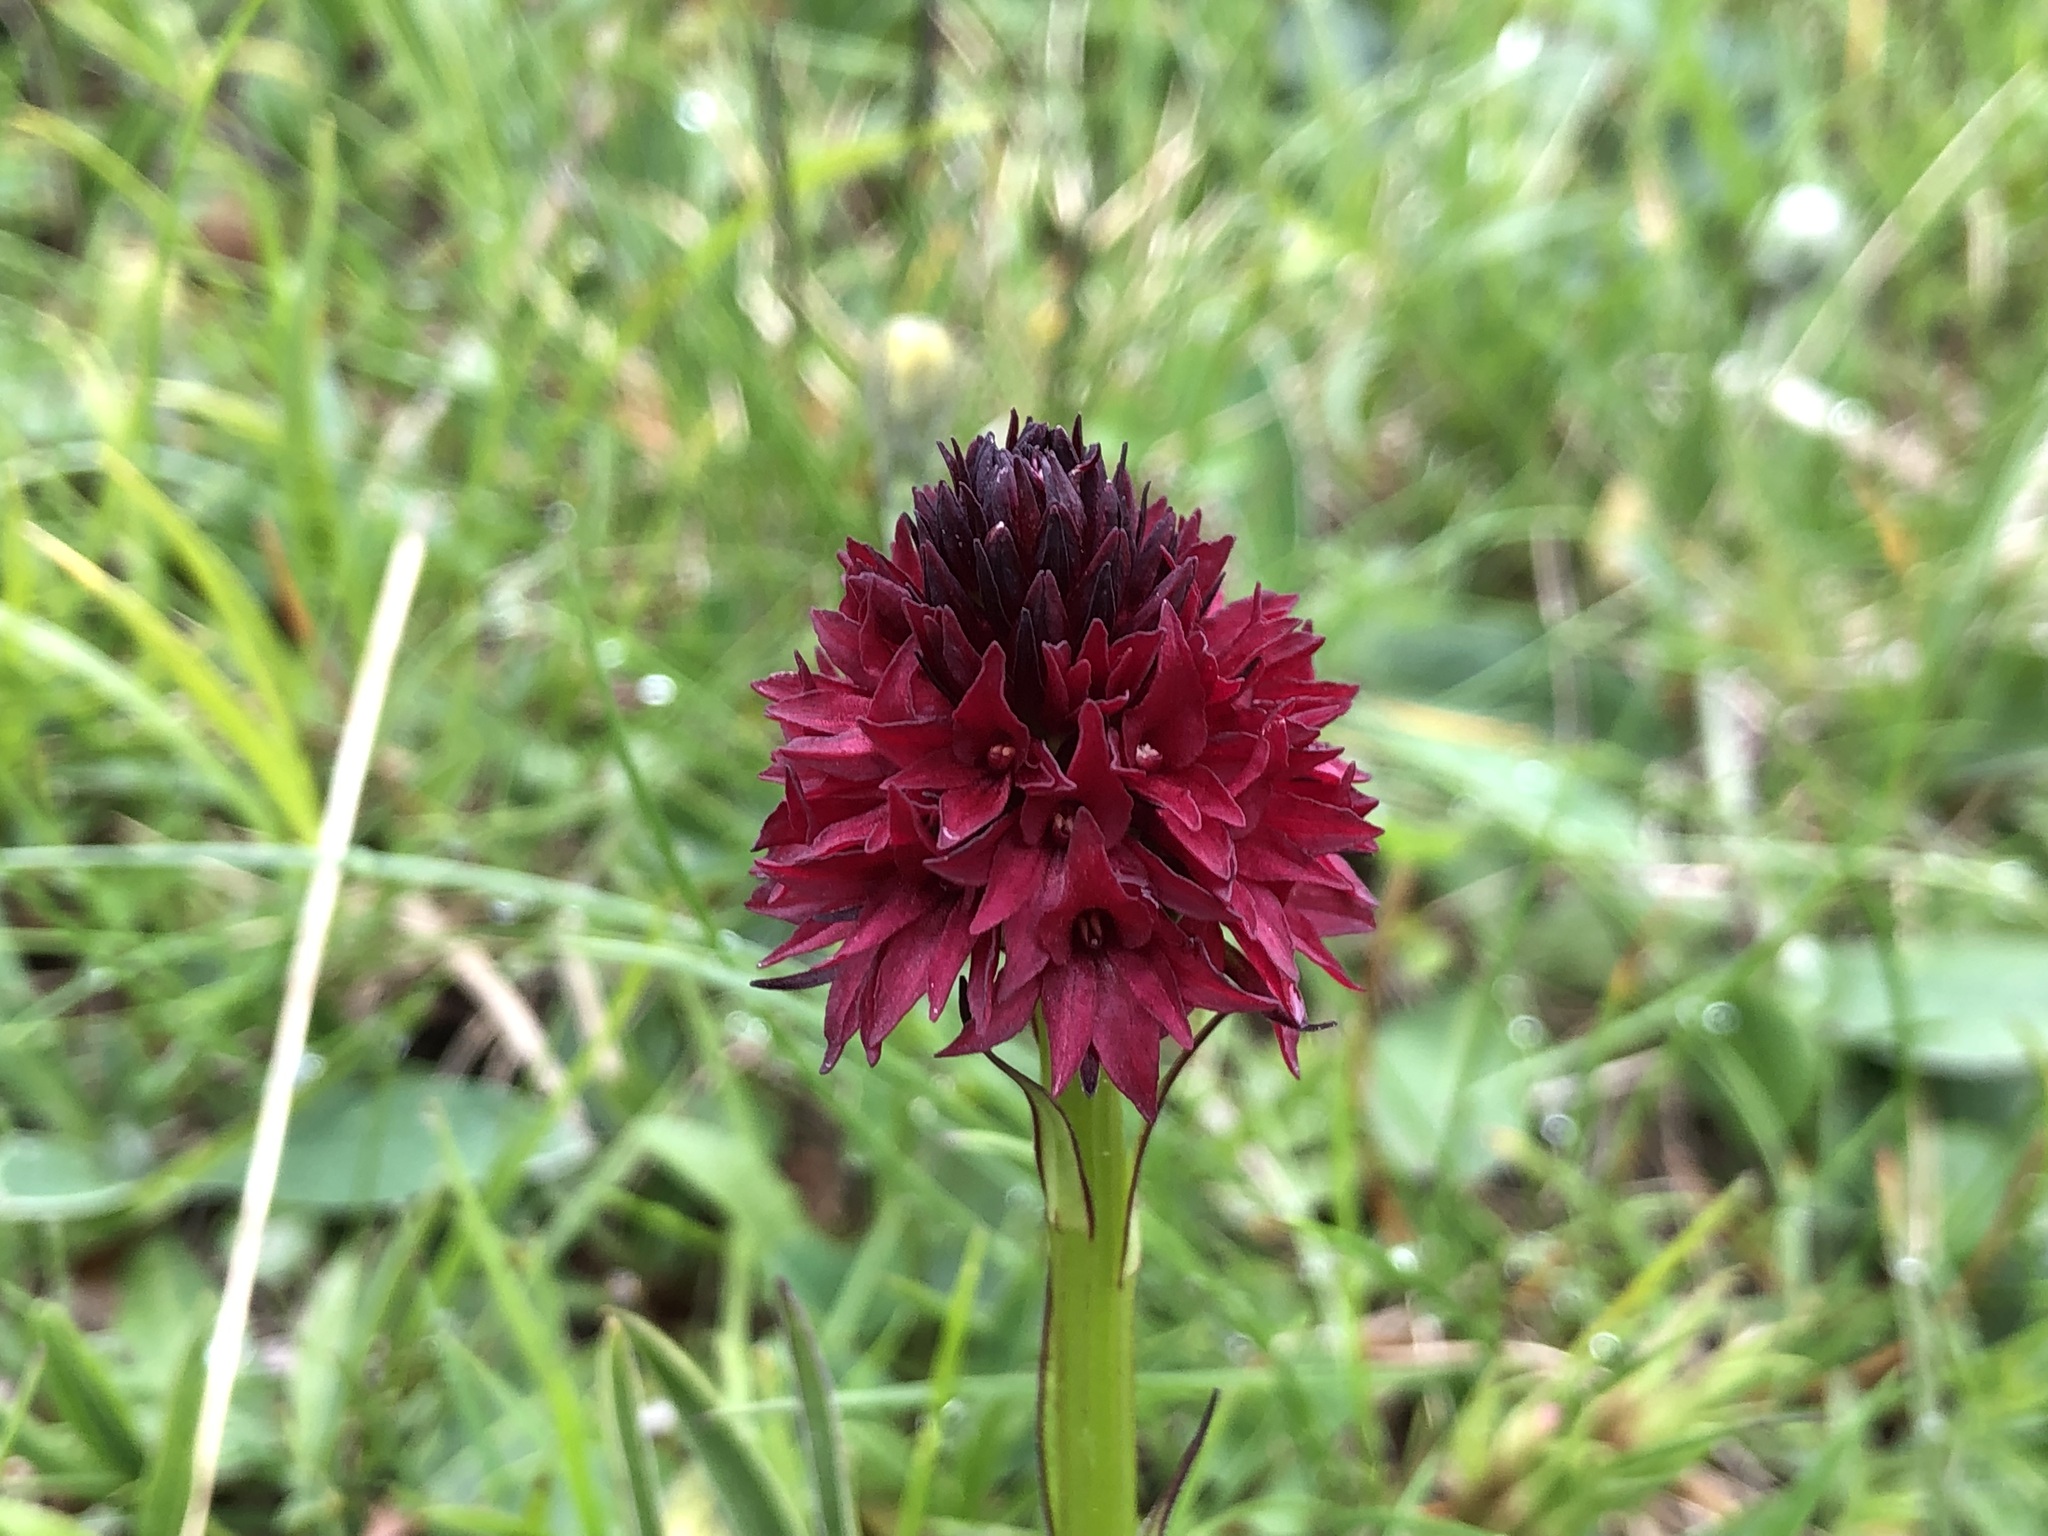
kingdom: Plantae
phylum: Tracheophyta
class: Liliopsida
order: Asparagales
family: Orchidaceae
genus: Gymnadenia
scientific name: Gymnadenia rhellicani
